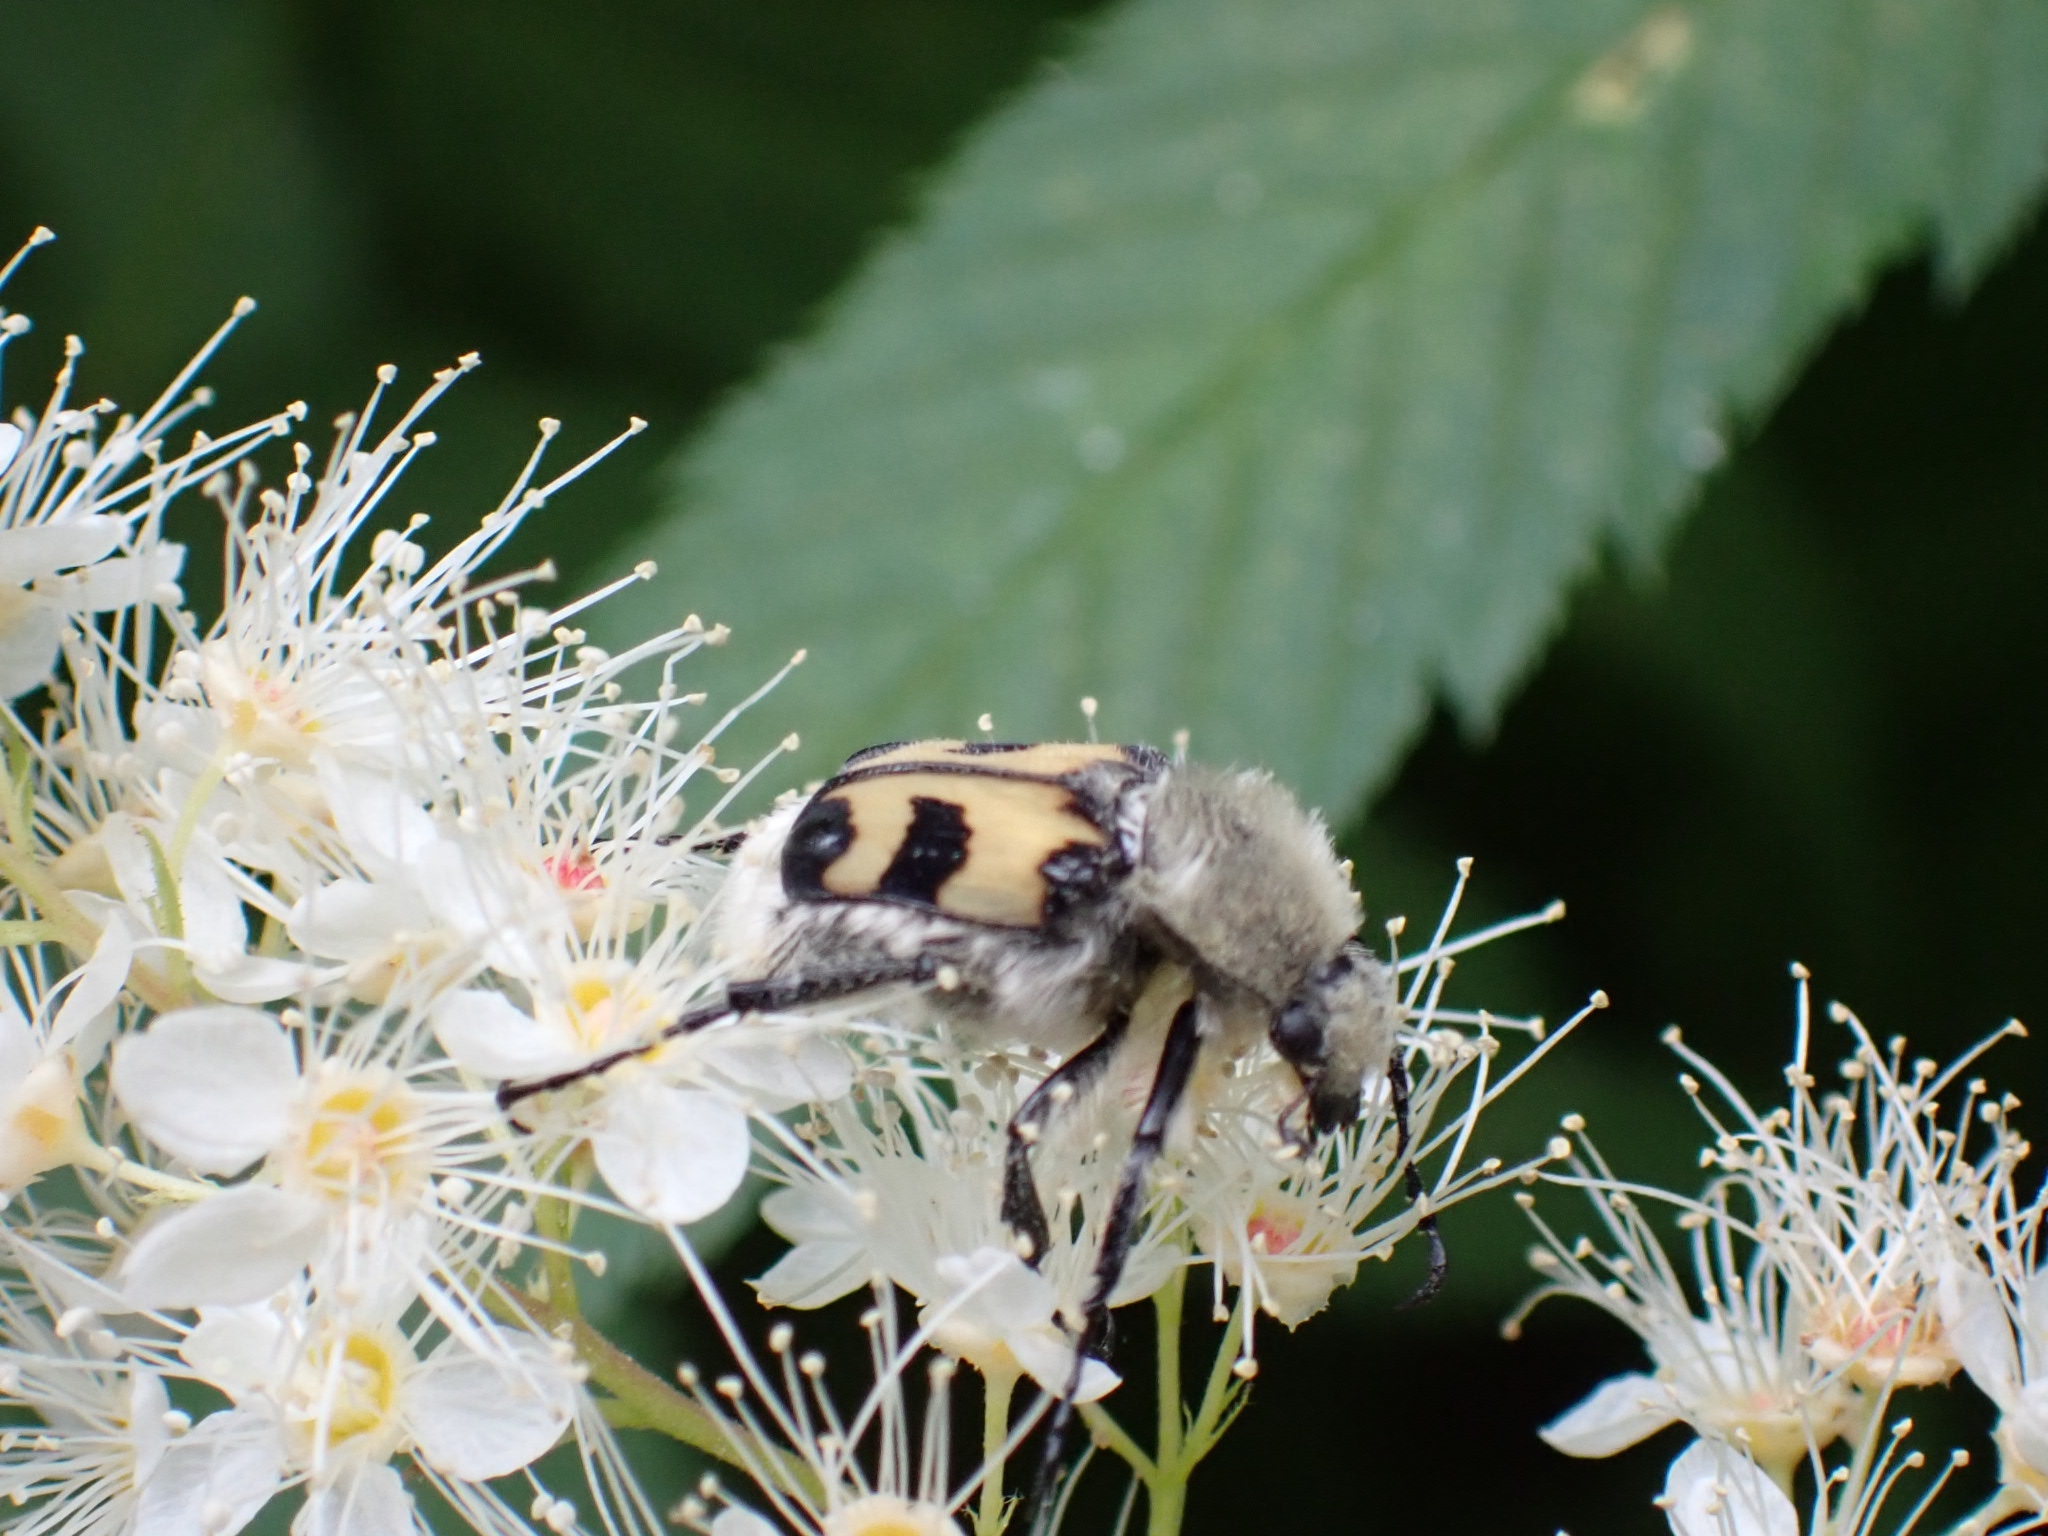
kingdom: Animalia
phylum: Arthropoda
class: Insecta
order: Coleoptera
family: Scarabaeidae
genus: Trichius
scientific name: Trichius fasciatus
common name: Bee beetle
